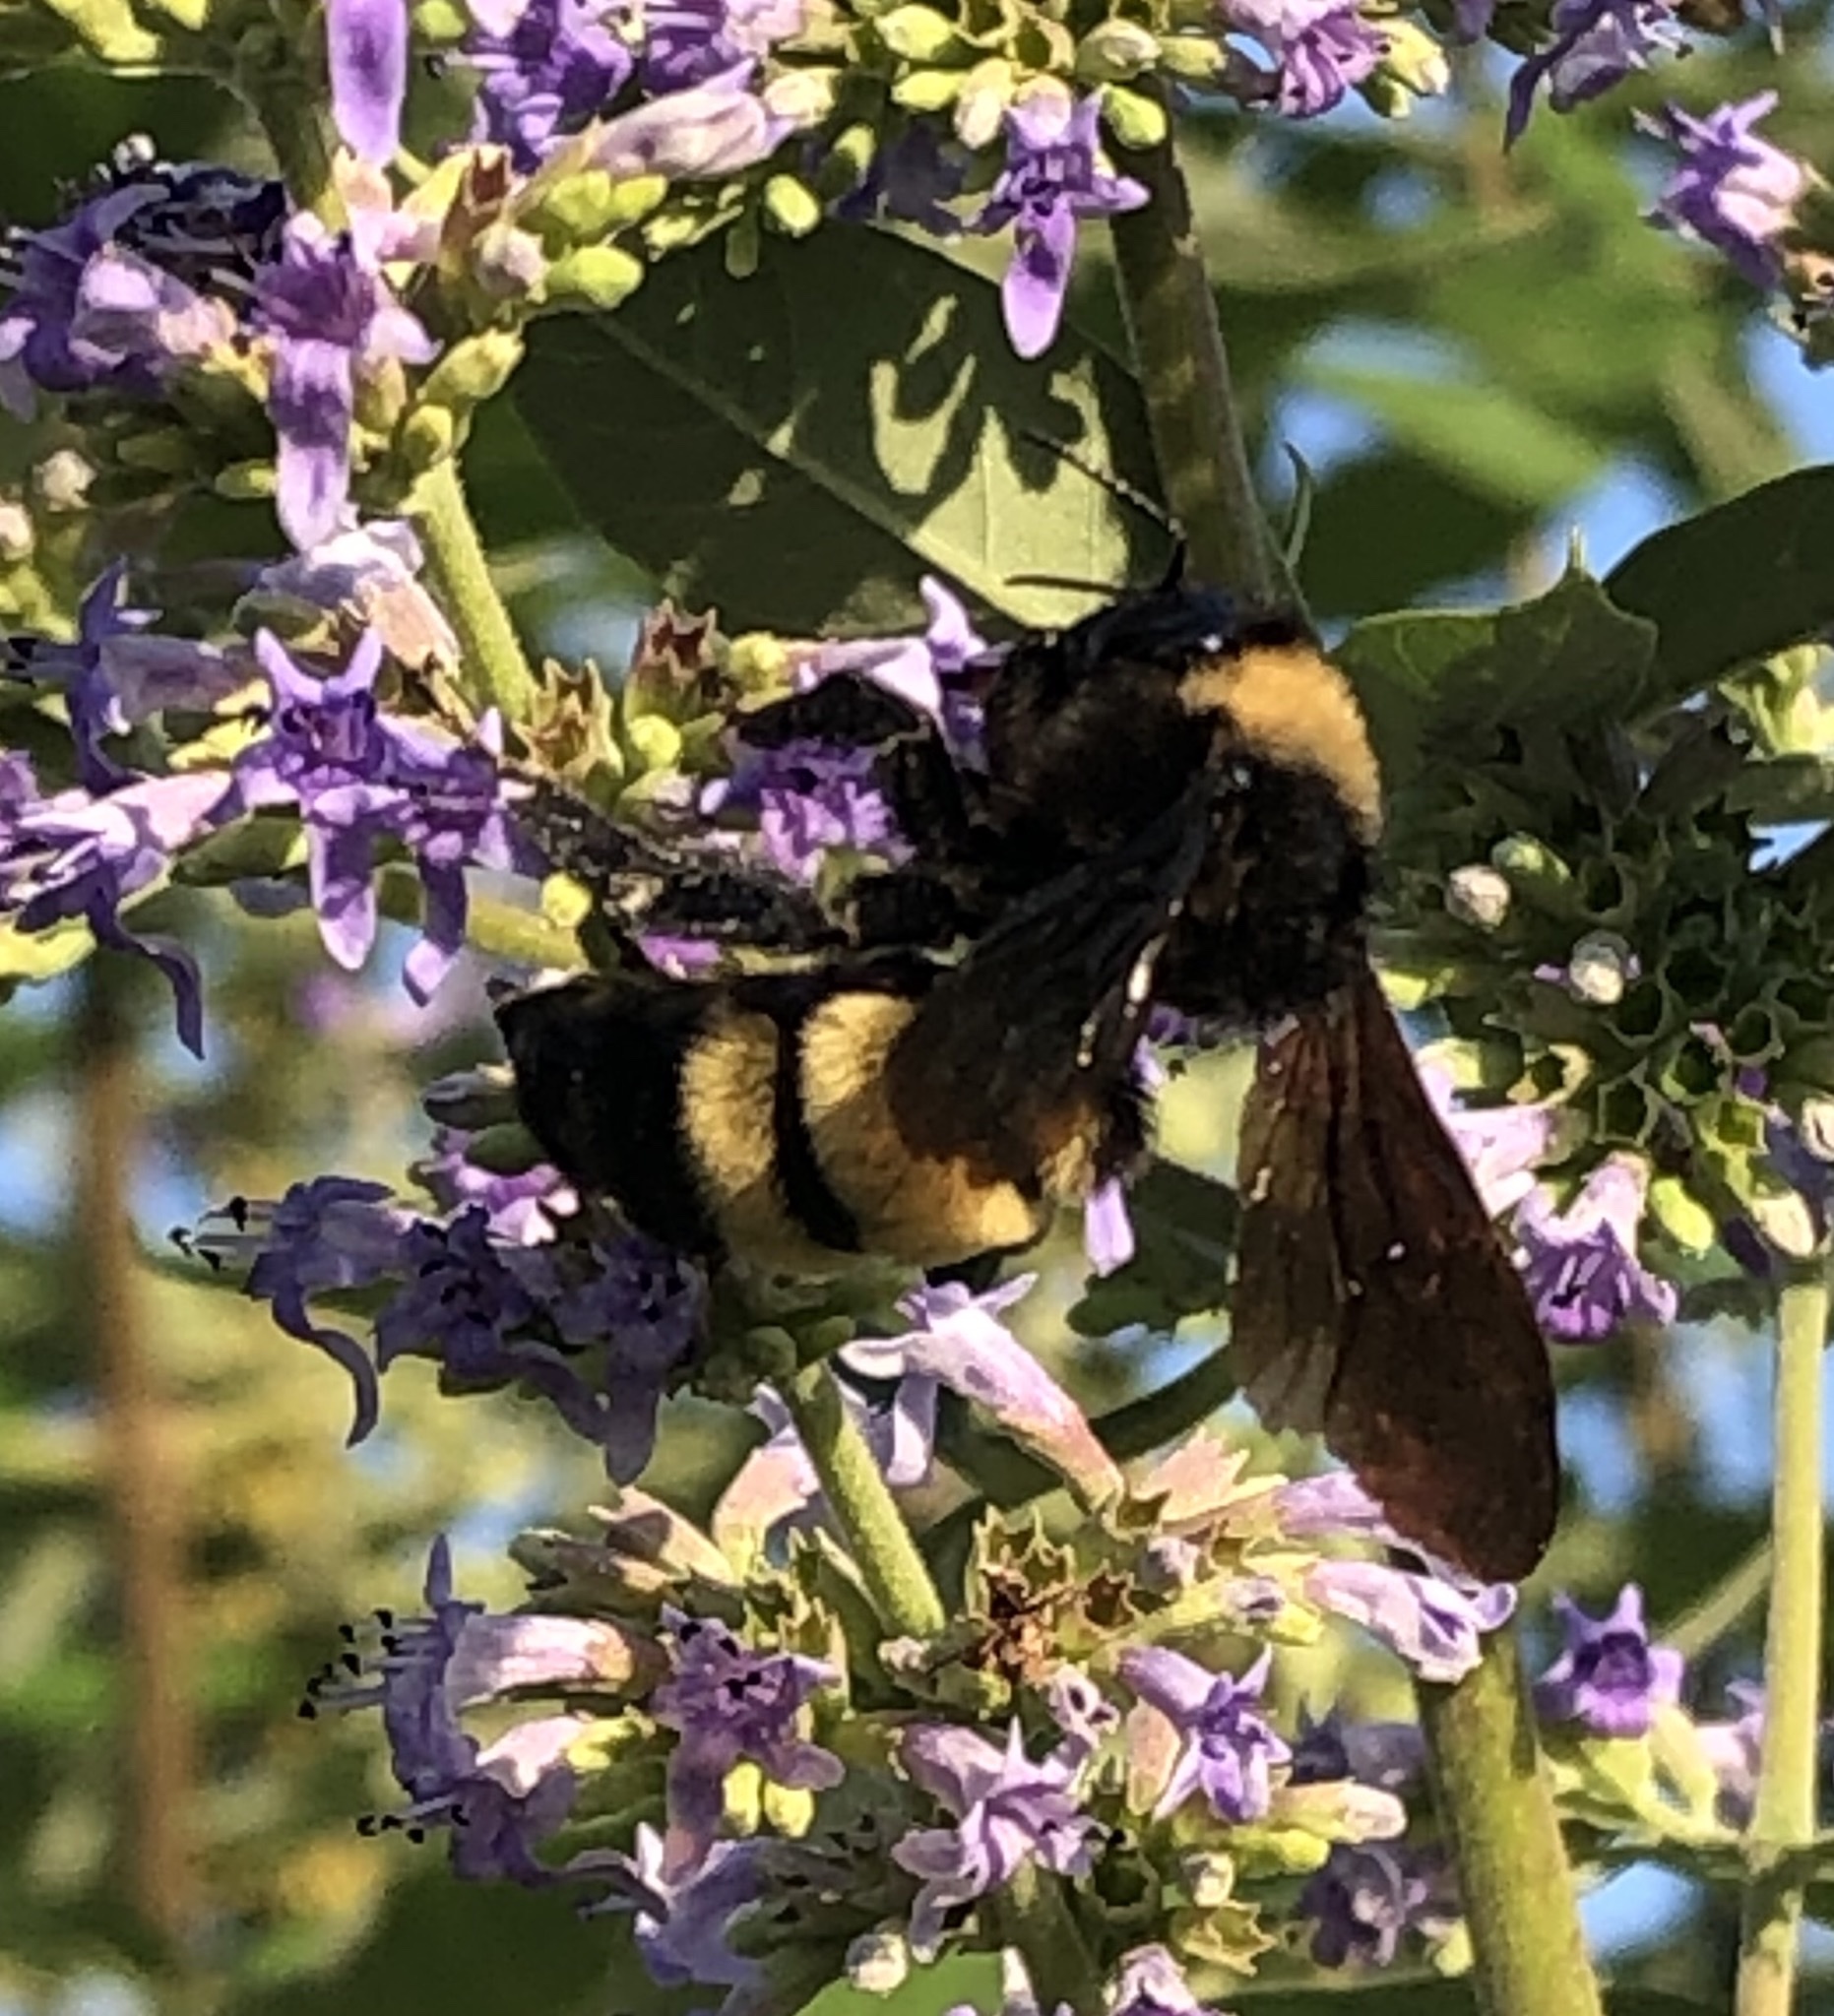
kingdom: Animalia
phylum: Arthropoda
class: Insecta
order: Hymenoptera
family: Apidae
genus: Bombus
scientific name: Bombus pensylvanicus
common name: Bumble bee
